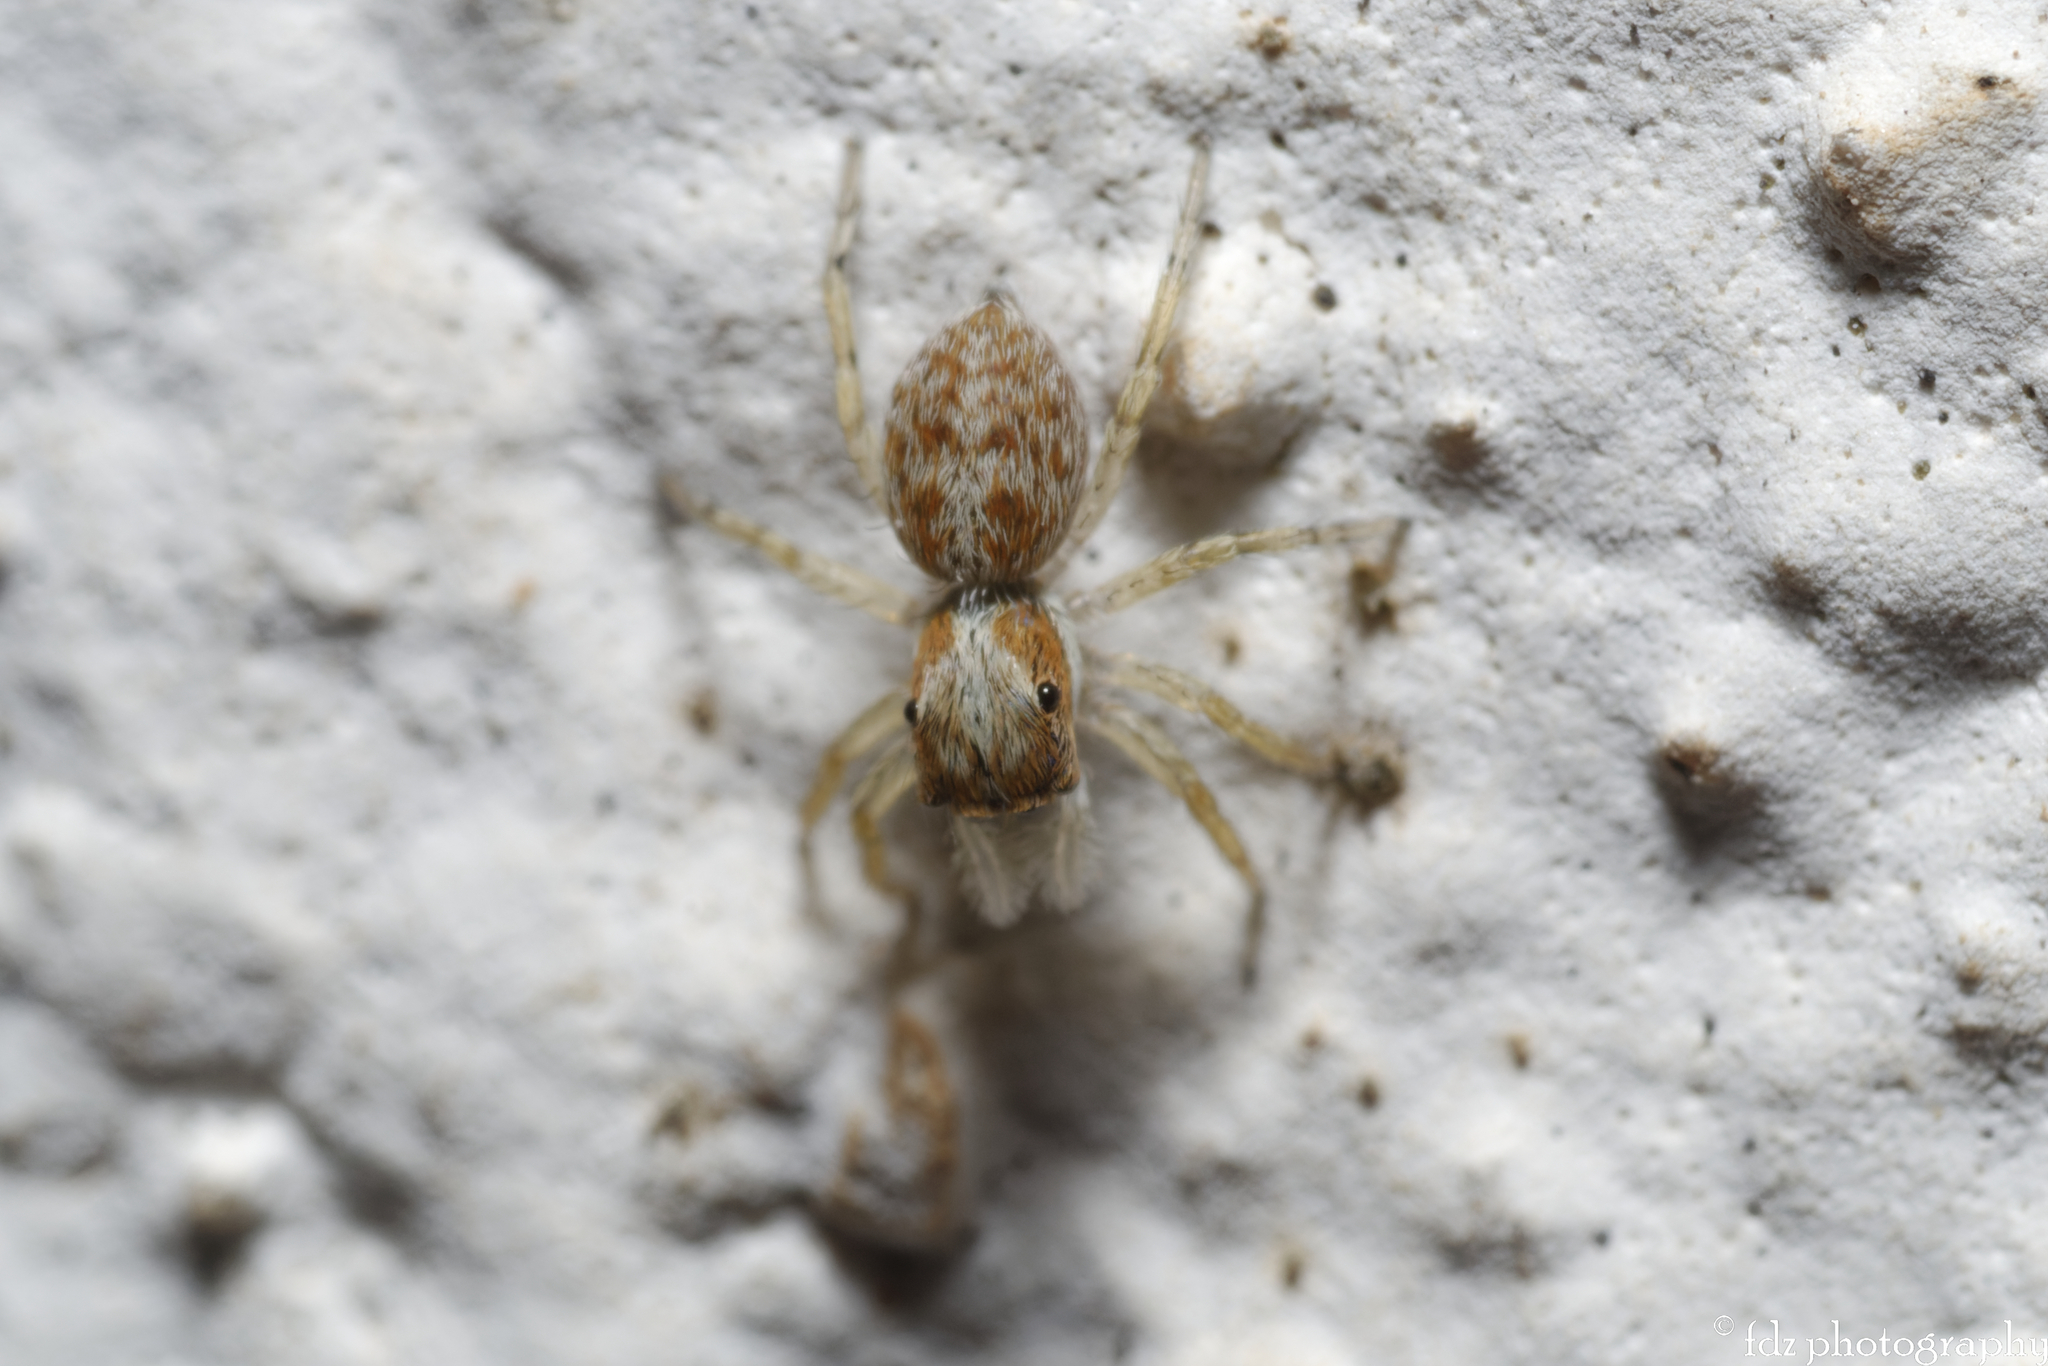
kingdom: Animalia
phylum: Arthropoda
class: Arachnida
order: Araneae
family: Salticidae
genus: Menemerus
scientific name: Menemerus semilimbatus
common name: Jumping spider
